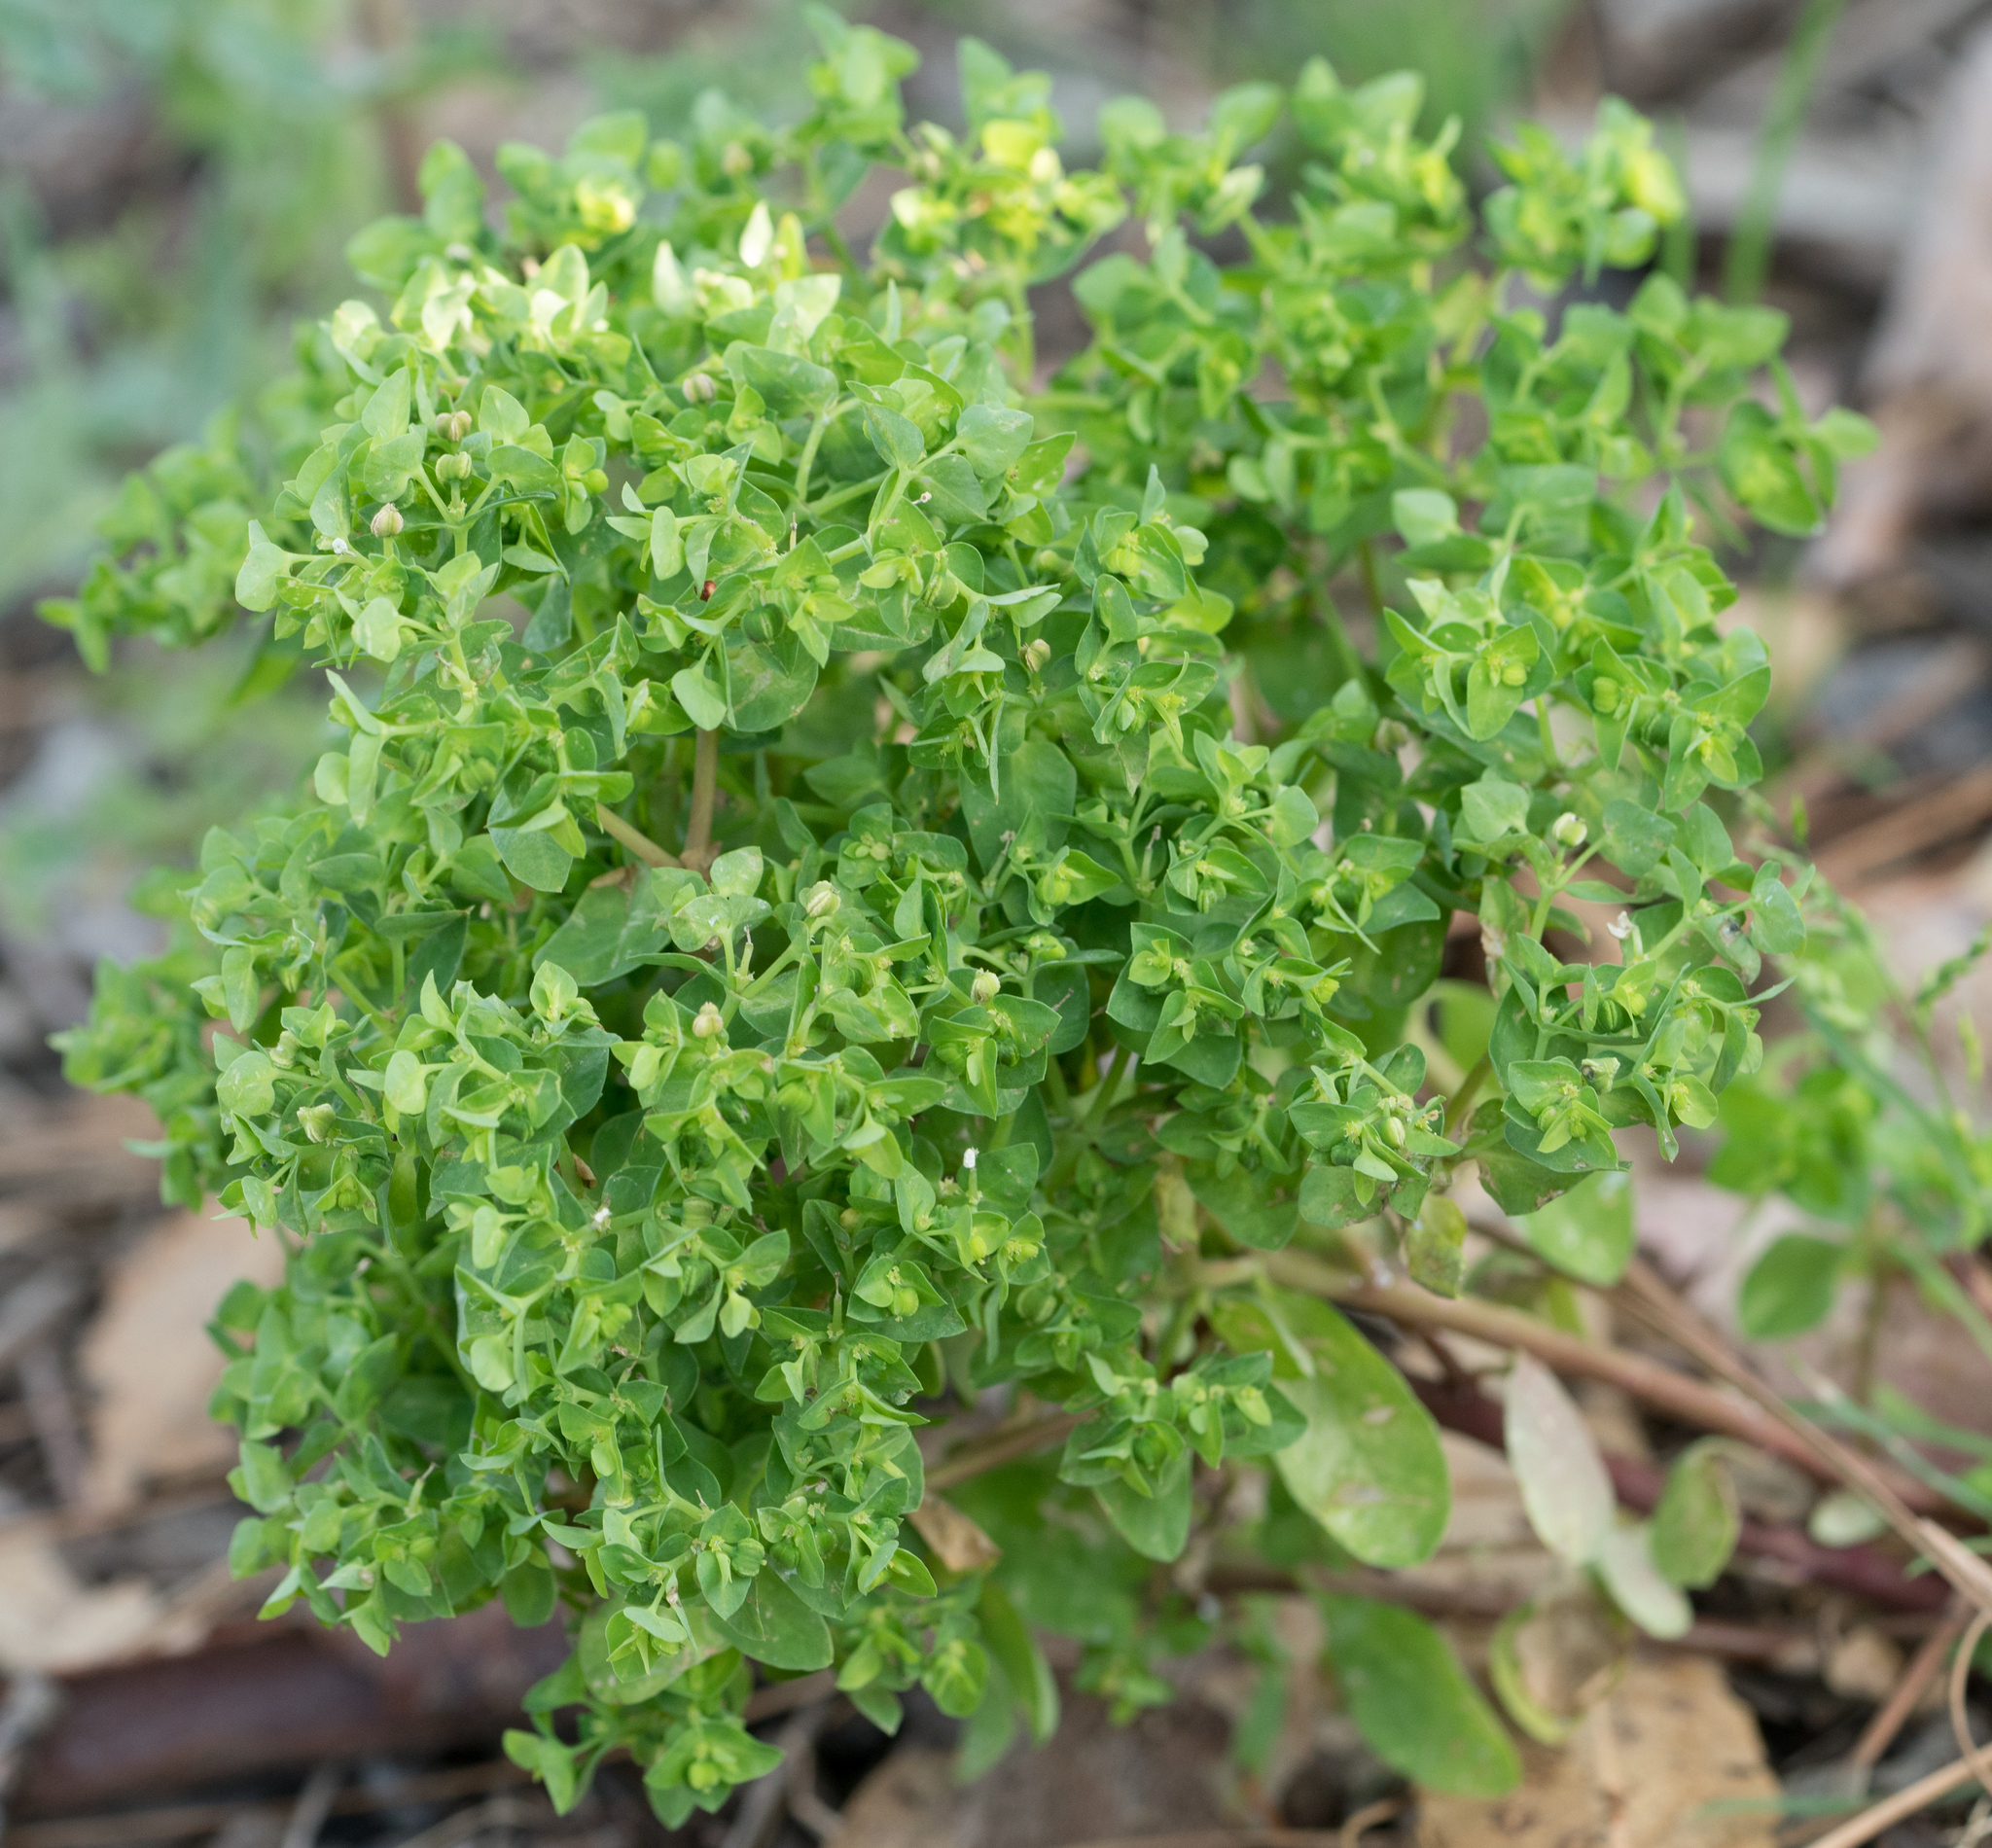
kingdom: Plantae
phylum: Tracheophyta
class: Magnoliopsida
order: Malpighiales
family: Euphorbiaceae
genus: Euphorbia
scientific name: Euphorbia peplus
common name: Petty spurge
